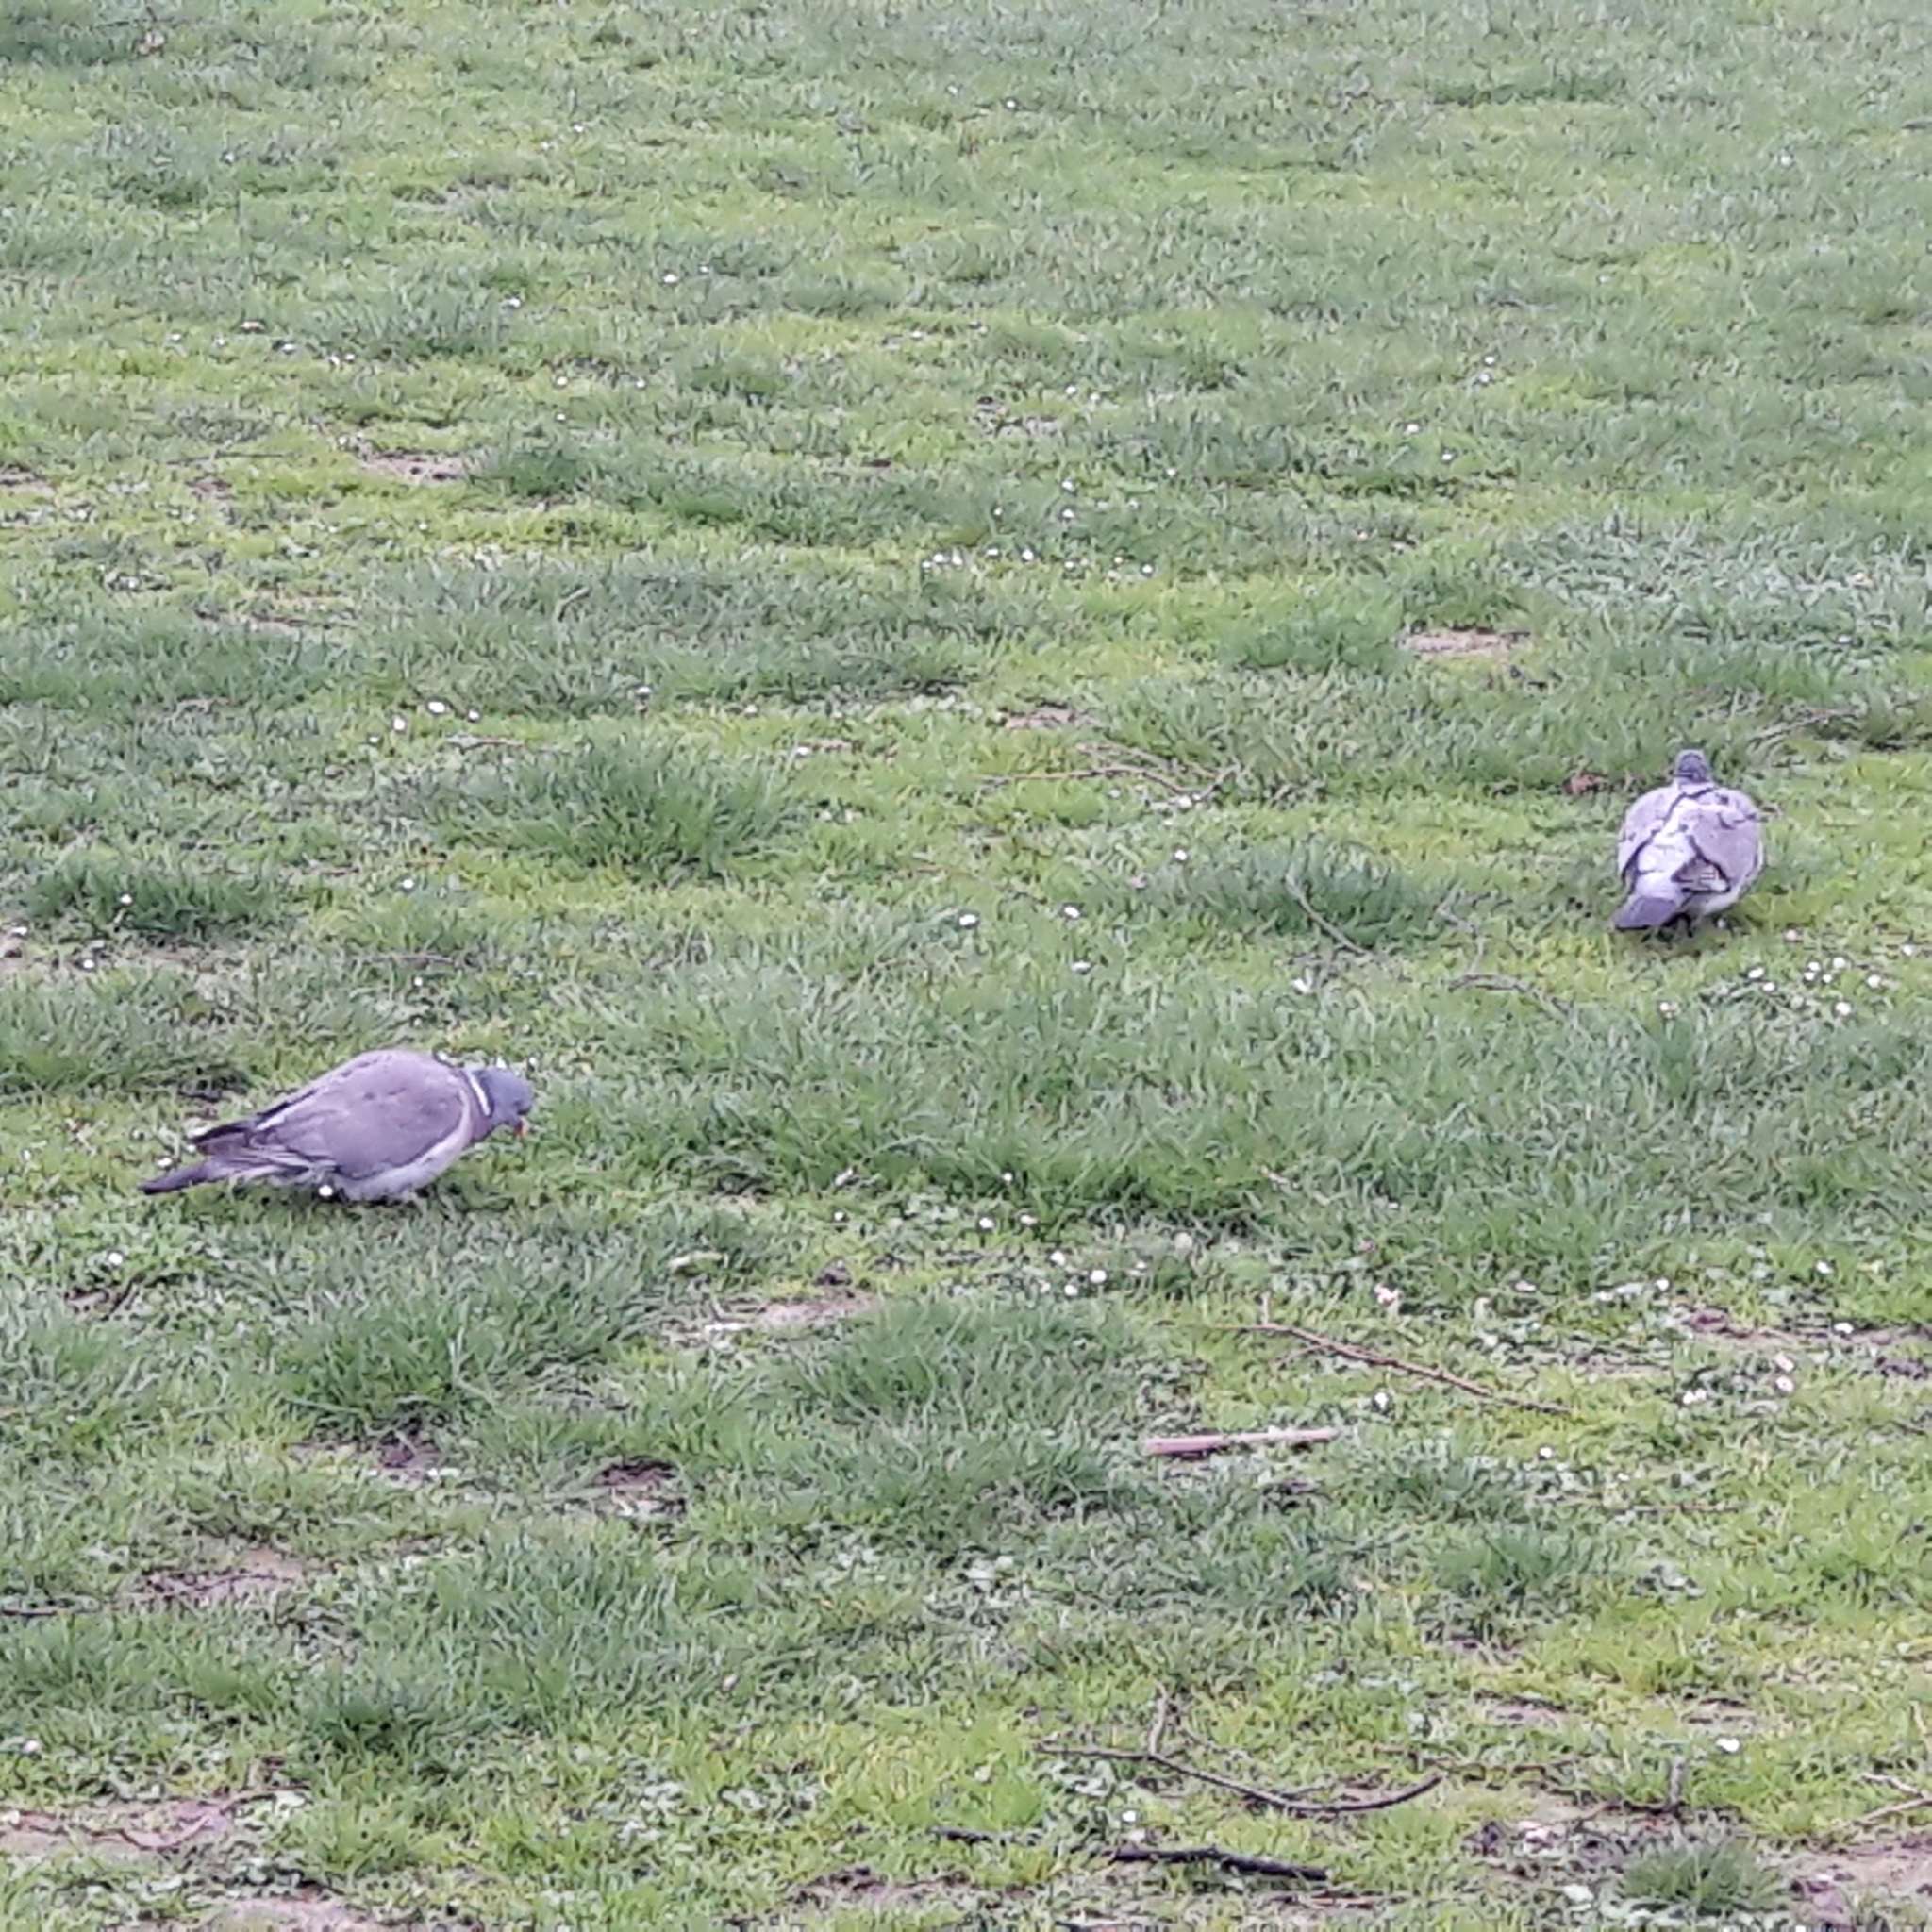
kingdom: Animalia
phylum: Chordata
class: Aves
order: Columbiformes
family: Columbidae
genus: Columba
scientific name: Columba palumbus
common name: Common wood pigeon
